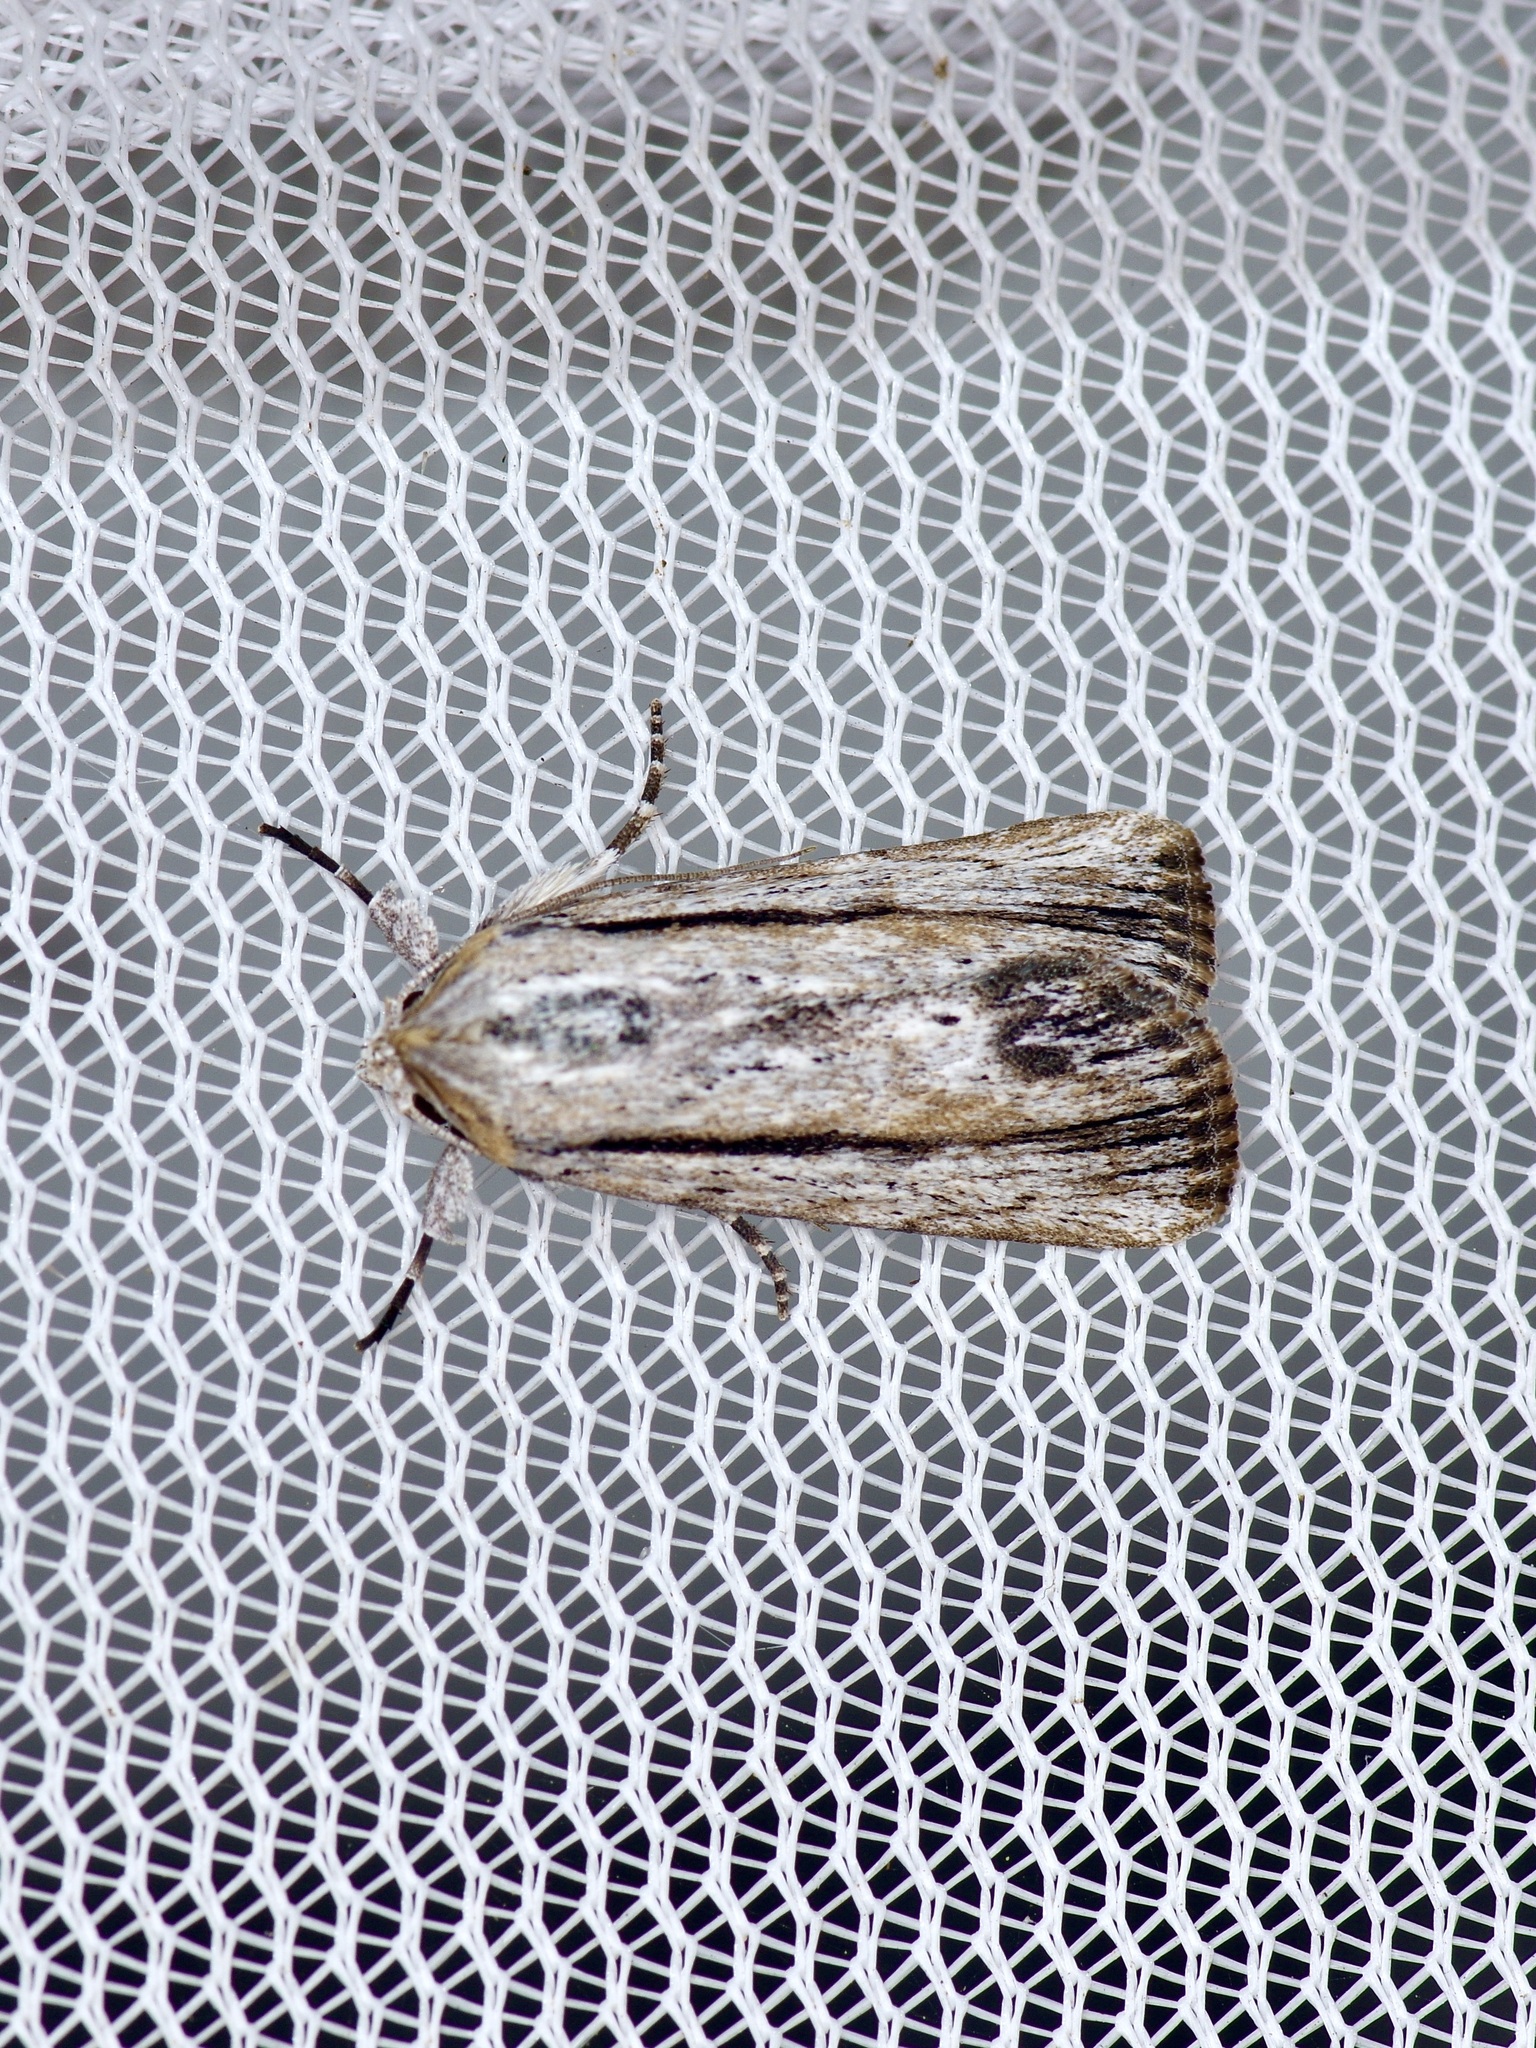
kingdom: Animalia
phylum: Arthropoda
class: Insecta
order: Lepidoptera
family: Noctuidae
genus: Catabenoides
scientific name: Catabenoides terminellus
